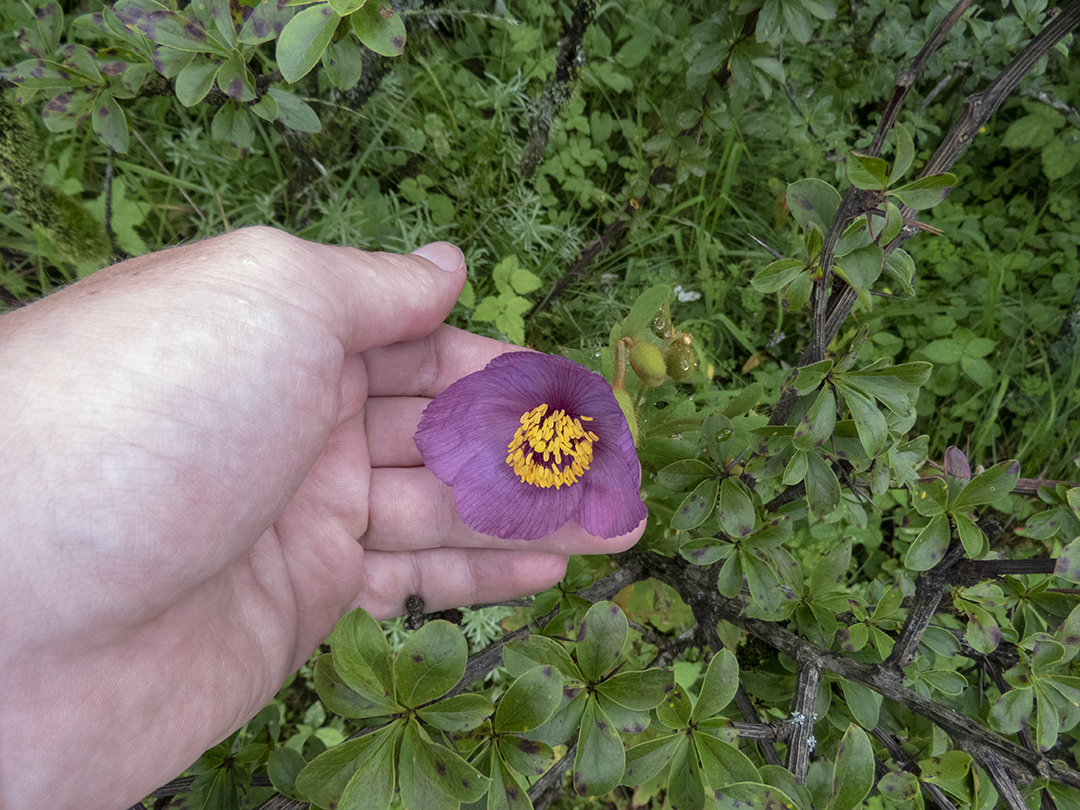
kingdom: Plantae
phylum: Tracheophyta
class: Magnoliopsida
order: Ranunculales
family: Papaveraceae
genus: Meconopsis
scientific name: Meconopsis wallichii
